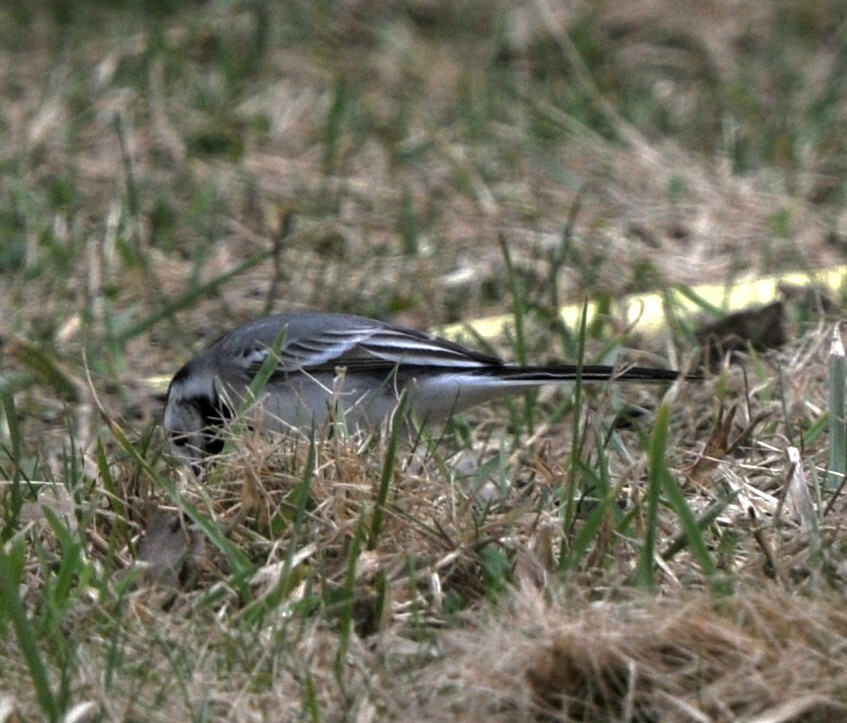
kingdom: Animalia
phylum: Chordata
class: Aves
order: Passeriformes
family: Motacillidae
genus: Motacilla
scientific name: Motacilla alba
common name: White wagtail
